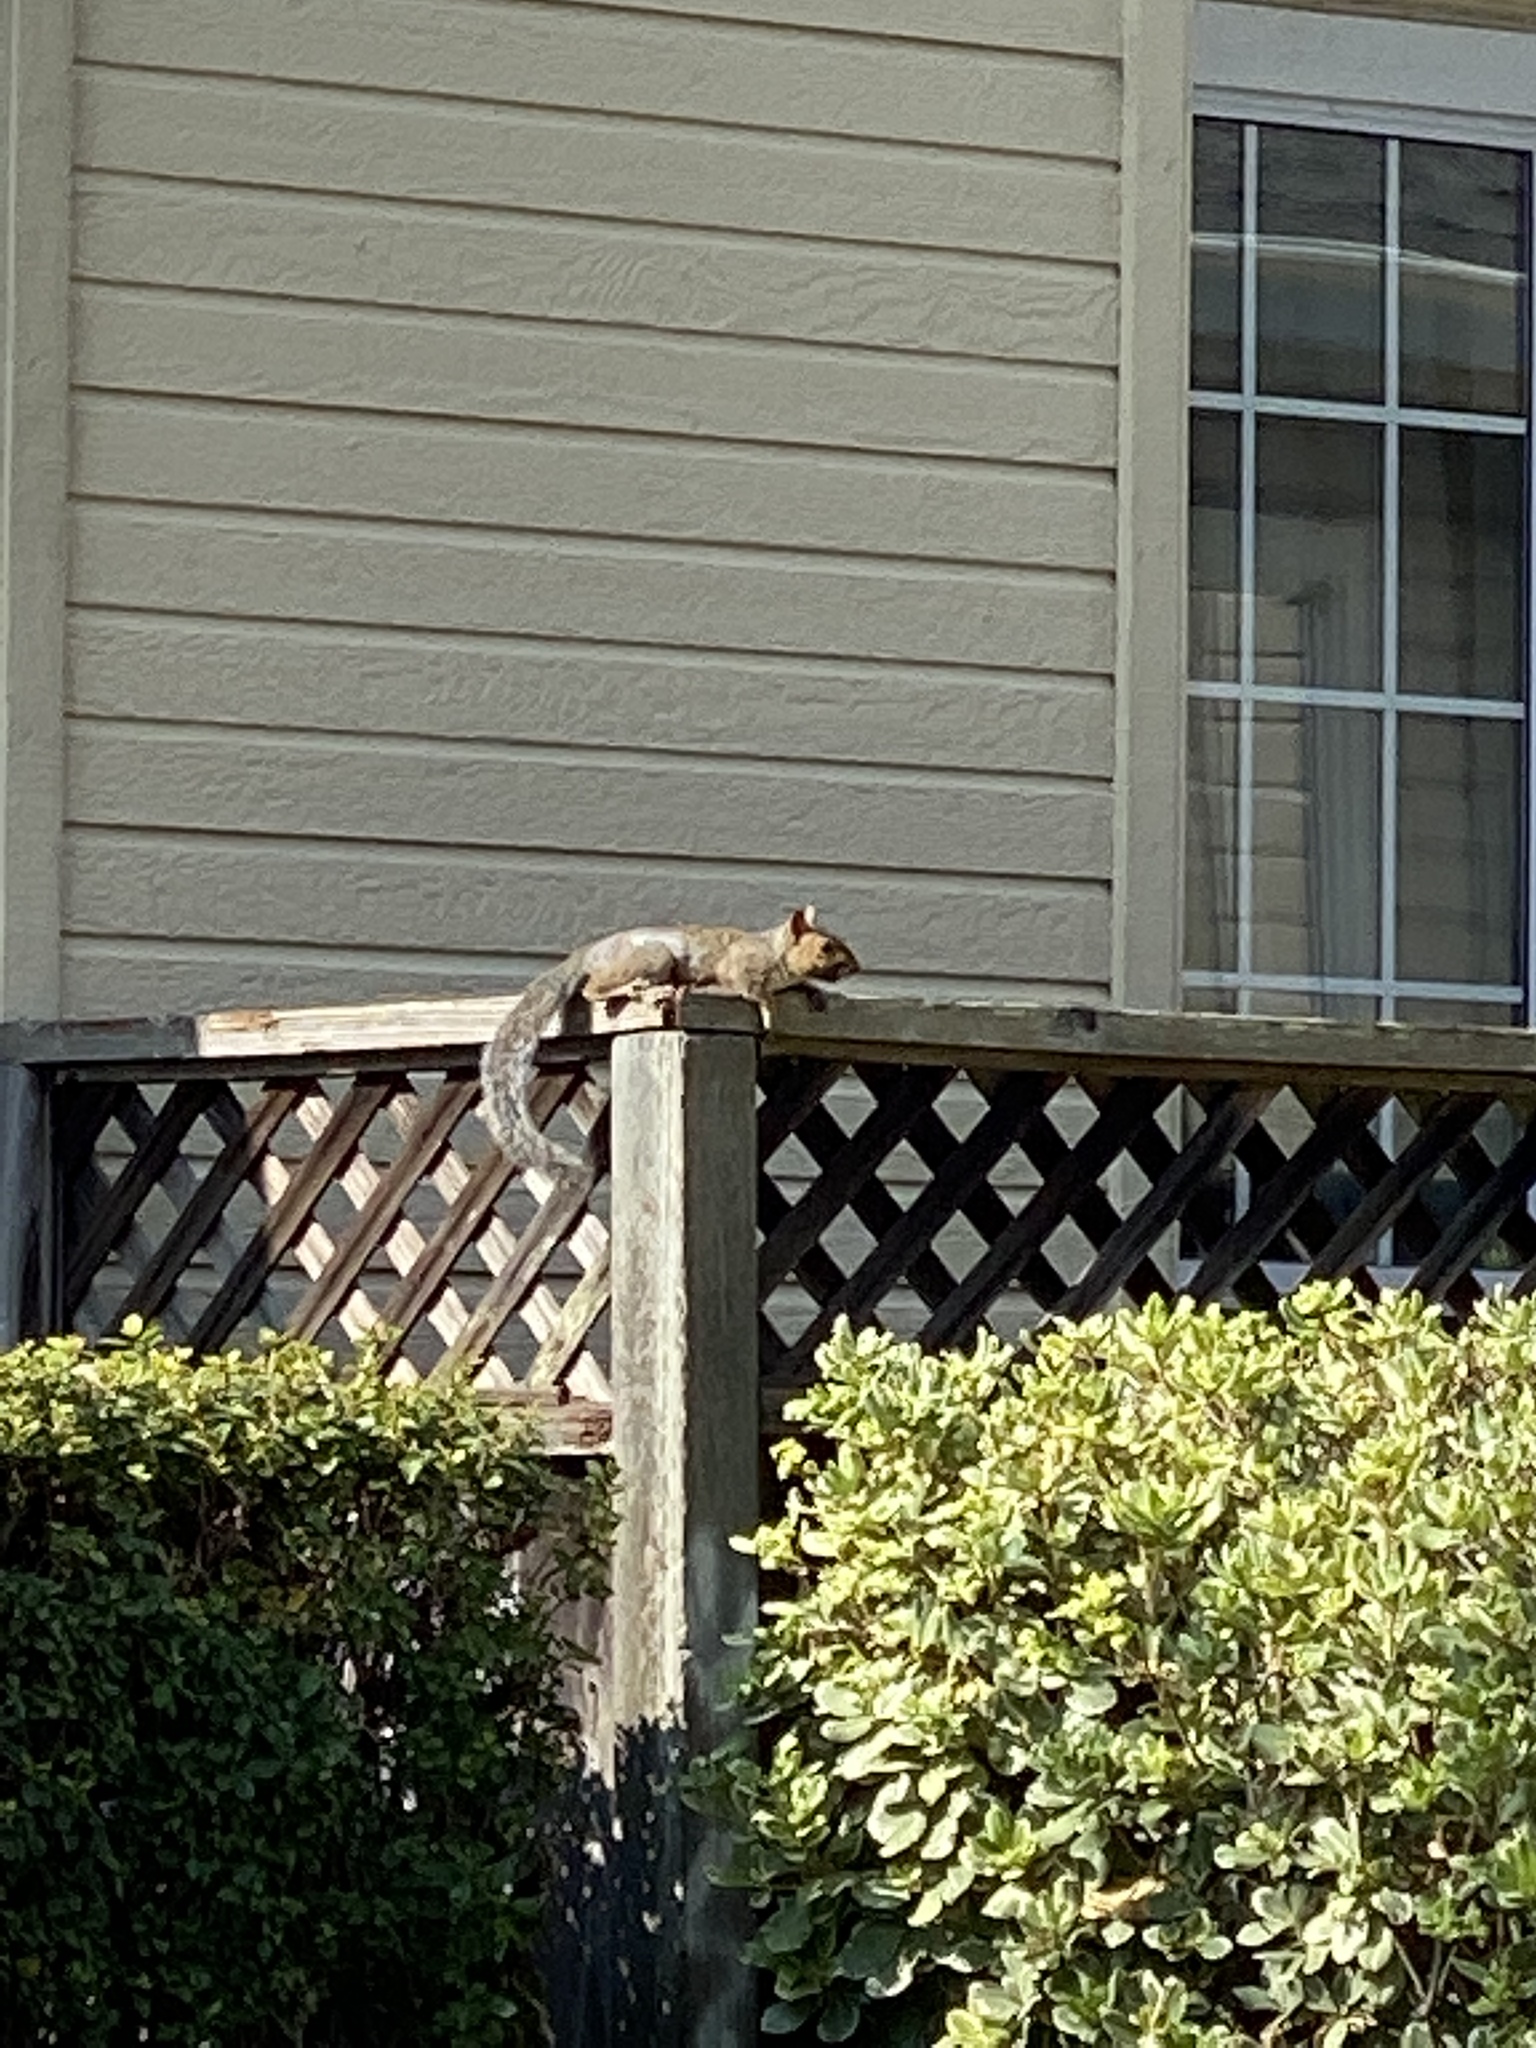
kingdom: Animalia
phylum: Chordata
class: Mammalia
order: Rodentia
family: Sciuridae
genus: Sciurus
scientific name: Sciurus carolinensis
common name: Eastern gray squirrel
